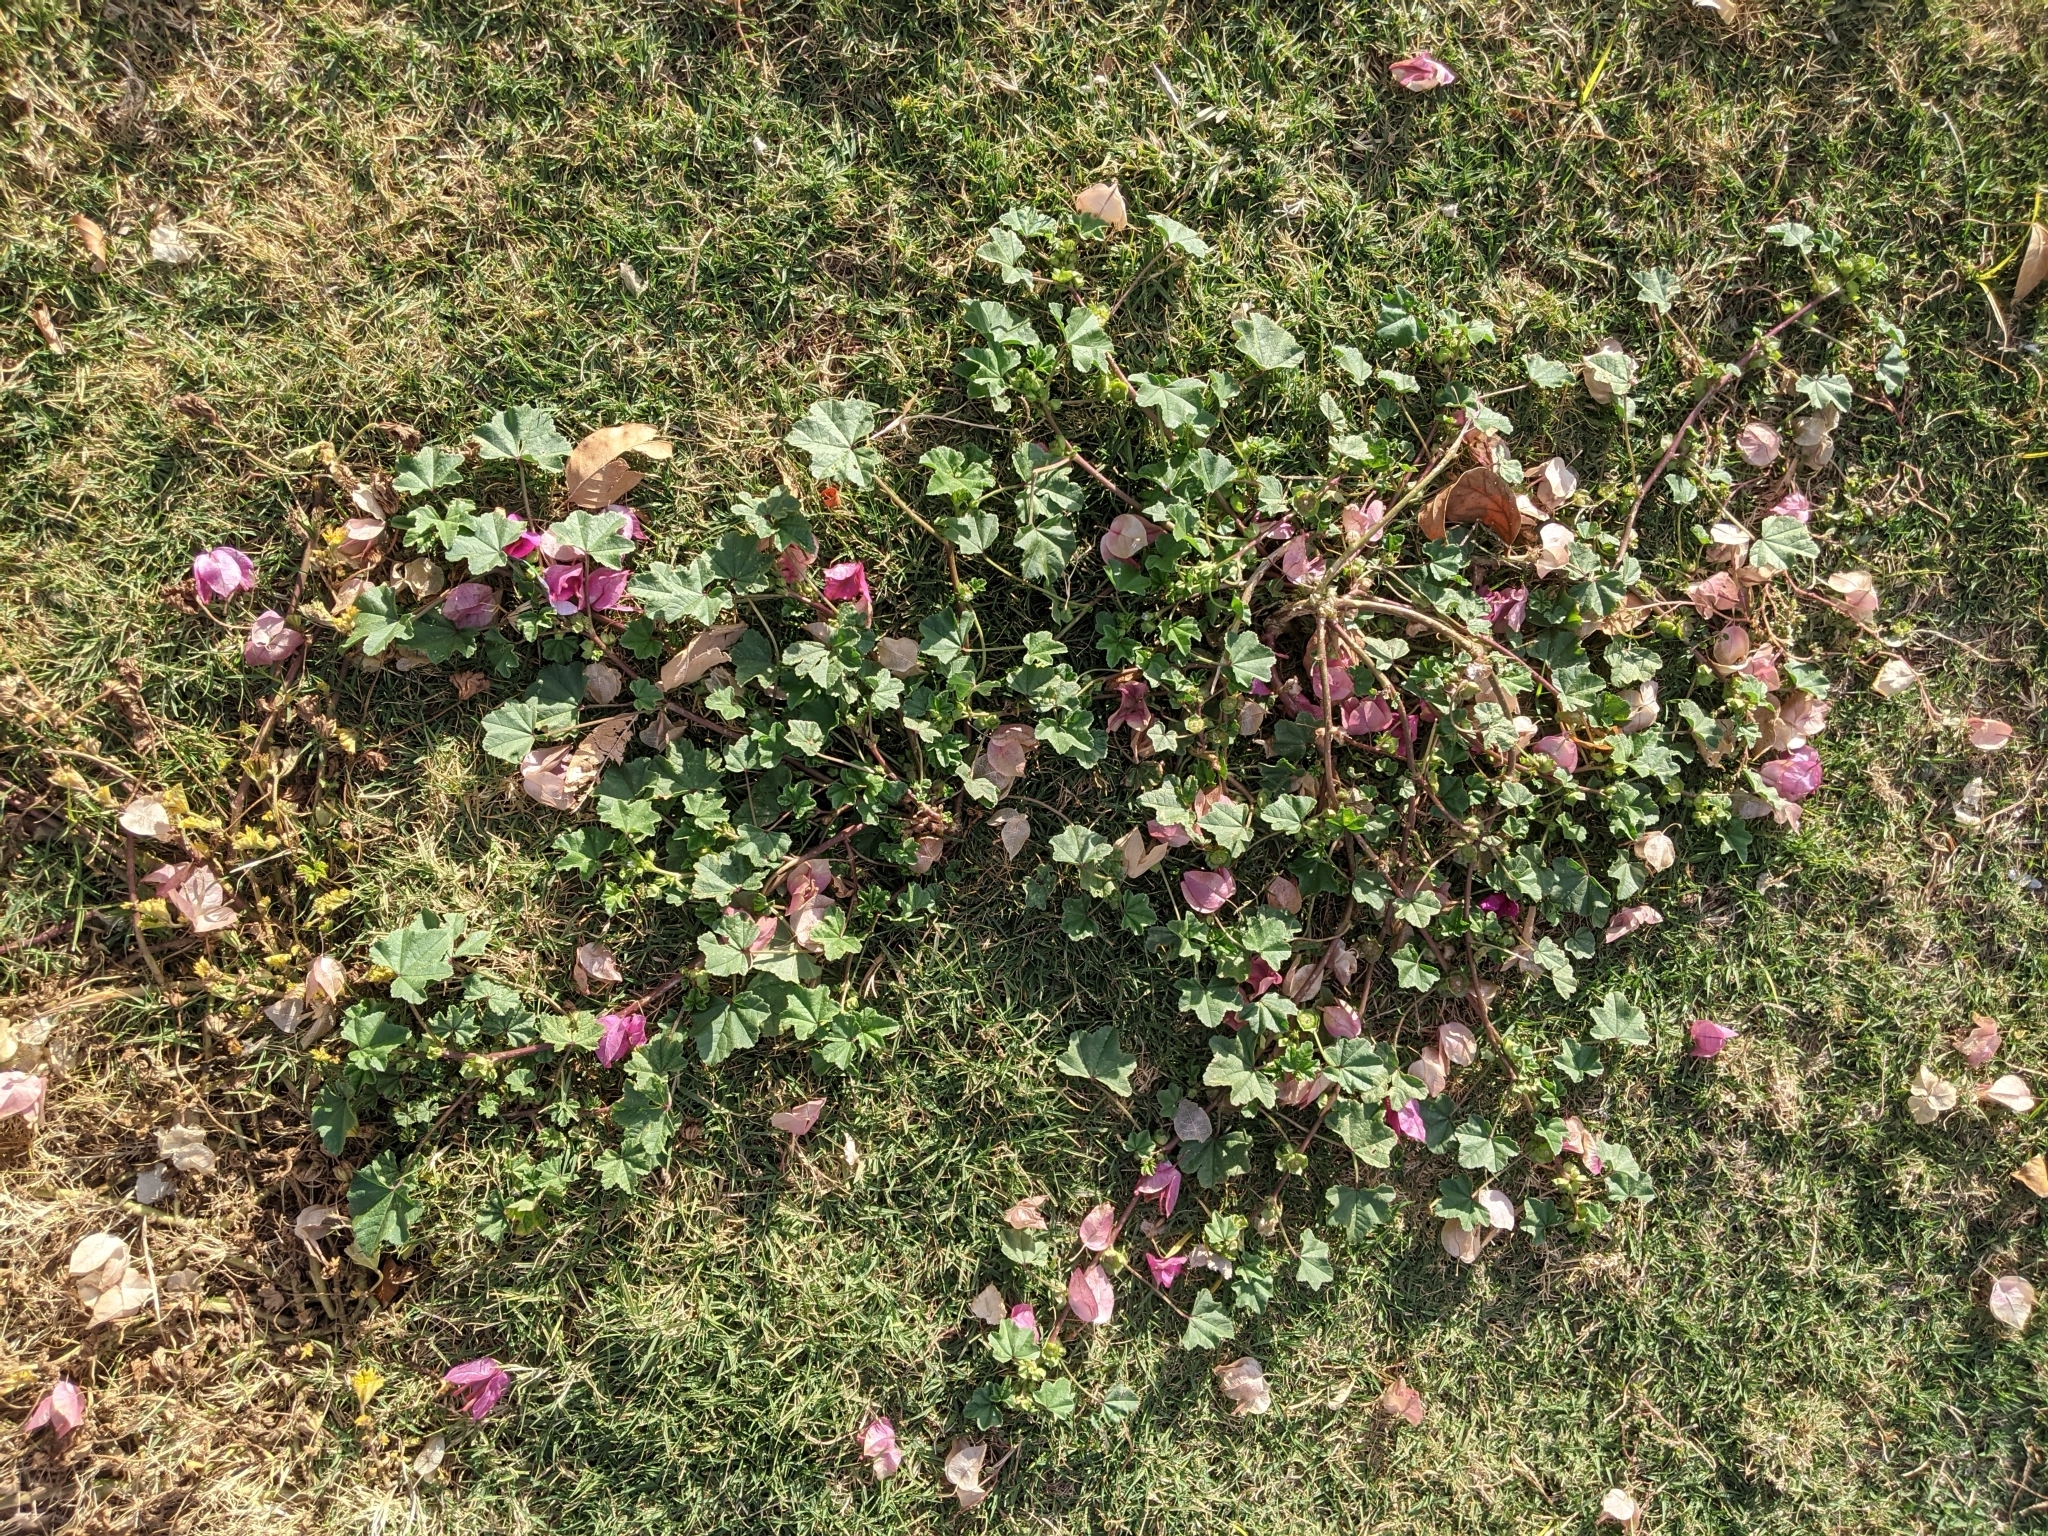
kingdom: Plantae
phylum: Tracheophyta
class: Magnoliopsida
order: Malvales
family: Malvaceae
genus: Malva
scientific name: Malva parviflora
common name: Least mallow
